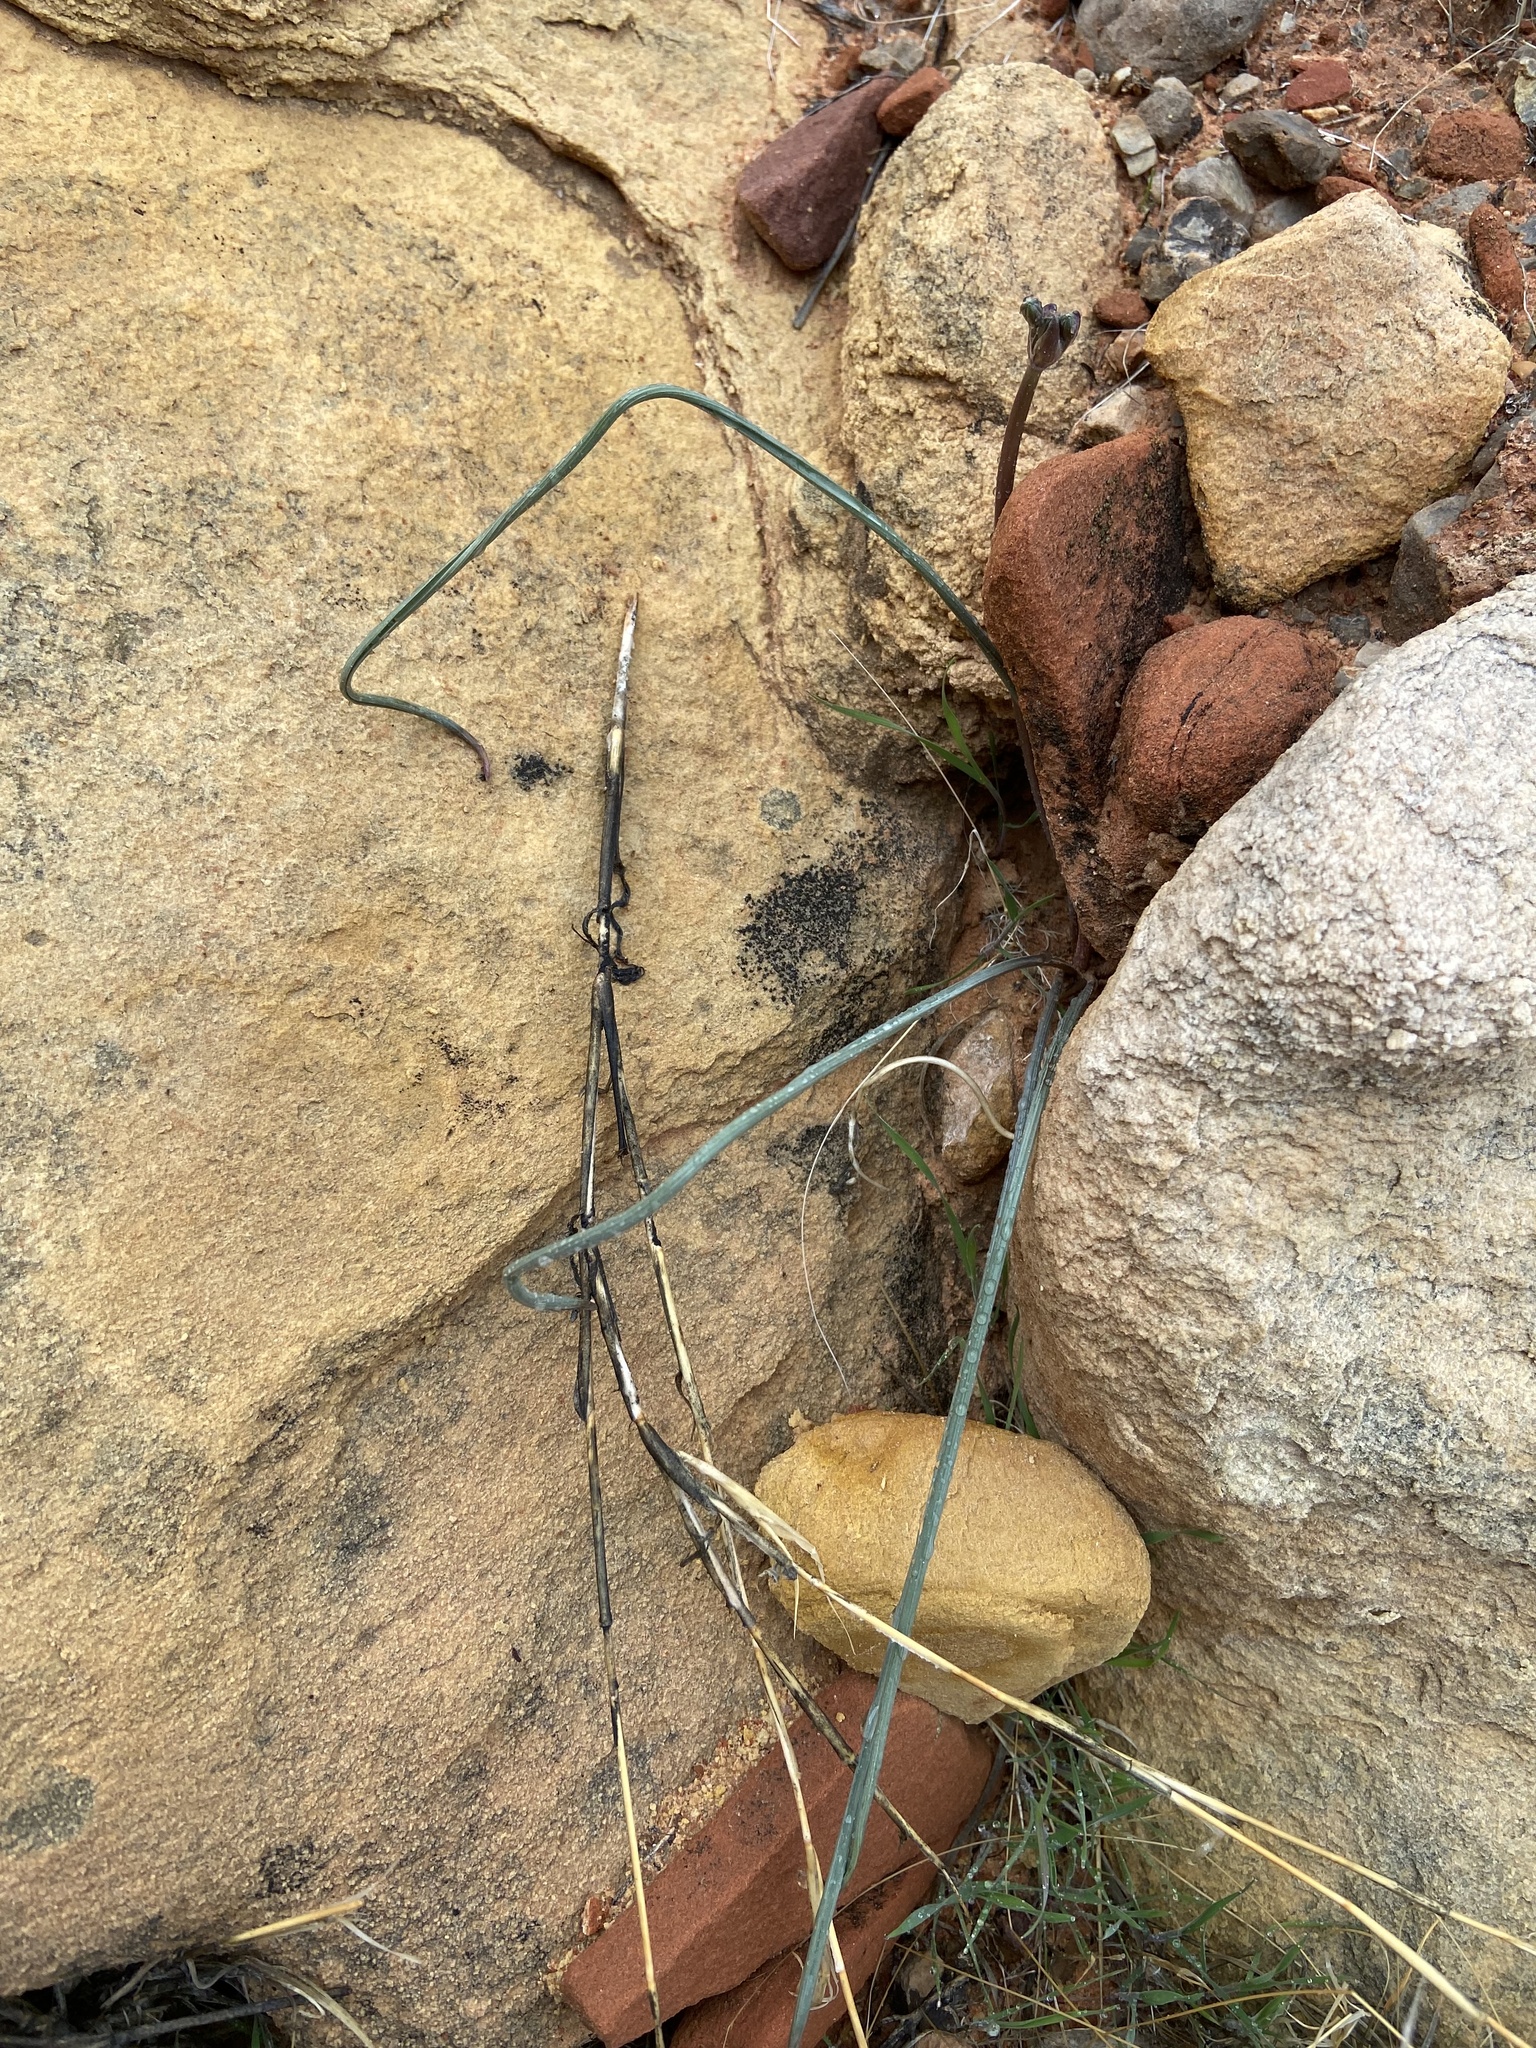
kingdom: Plantae
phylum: Tracheophyta
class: Liliopsida
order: Asparagales
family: Asparagaceae
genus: Androstephium
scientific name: Androstephium breviflorum
